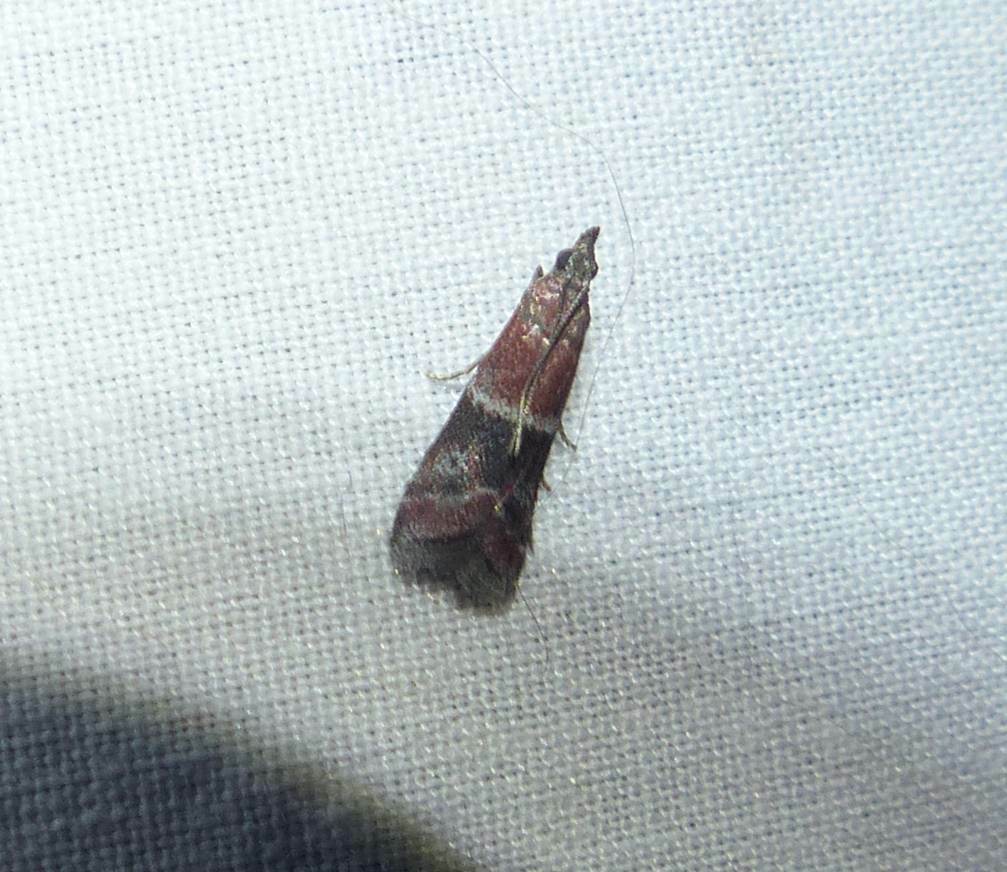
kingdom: Animalia
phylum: Arthropoda
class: Insecta
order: Lepidoptera
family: Pyralidae
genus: Moodna
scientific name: Moodna ostrinella
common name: Darker moodna moth
